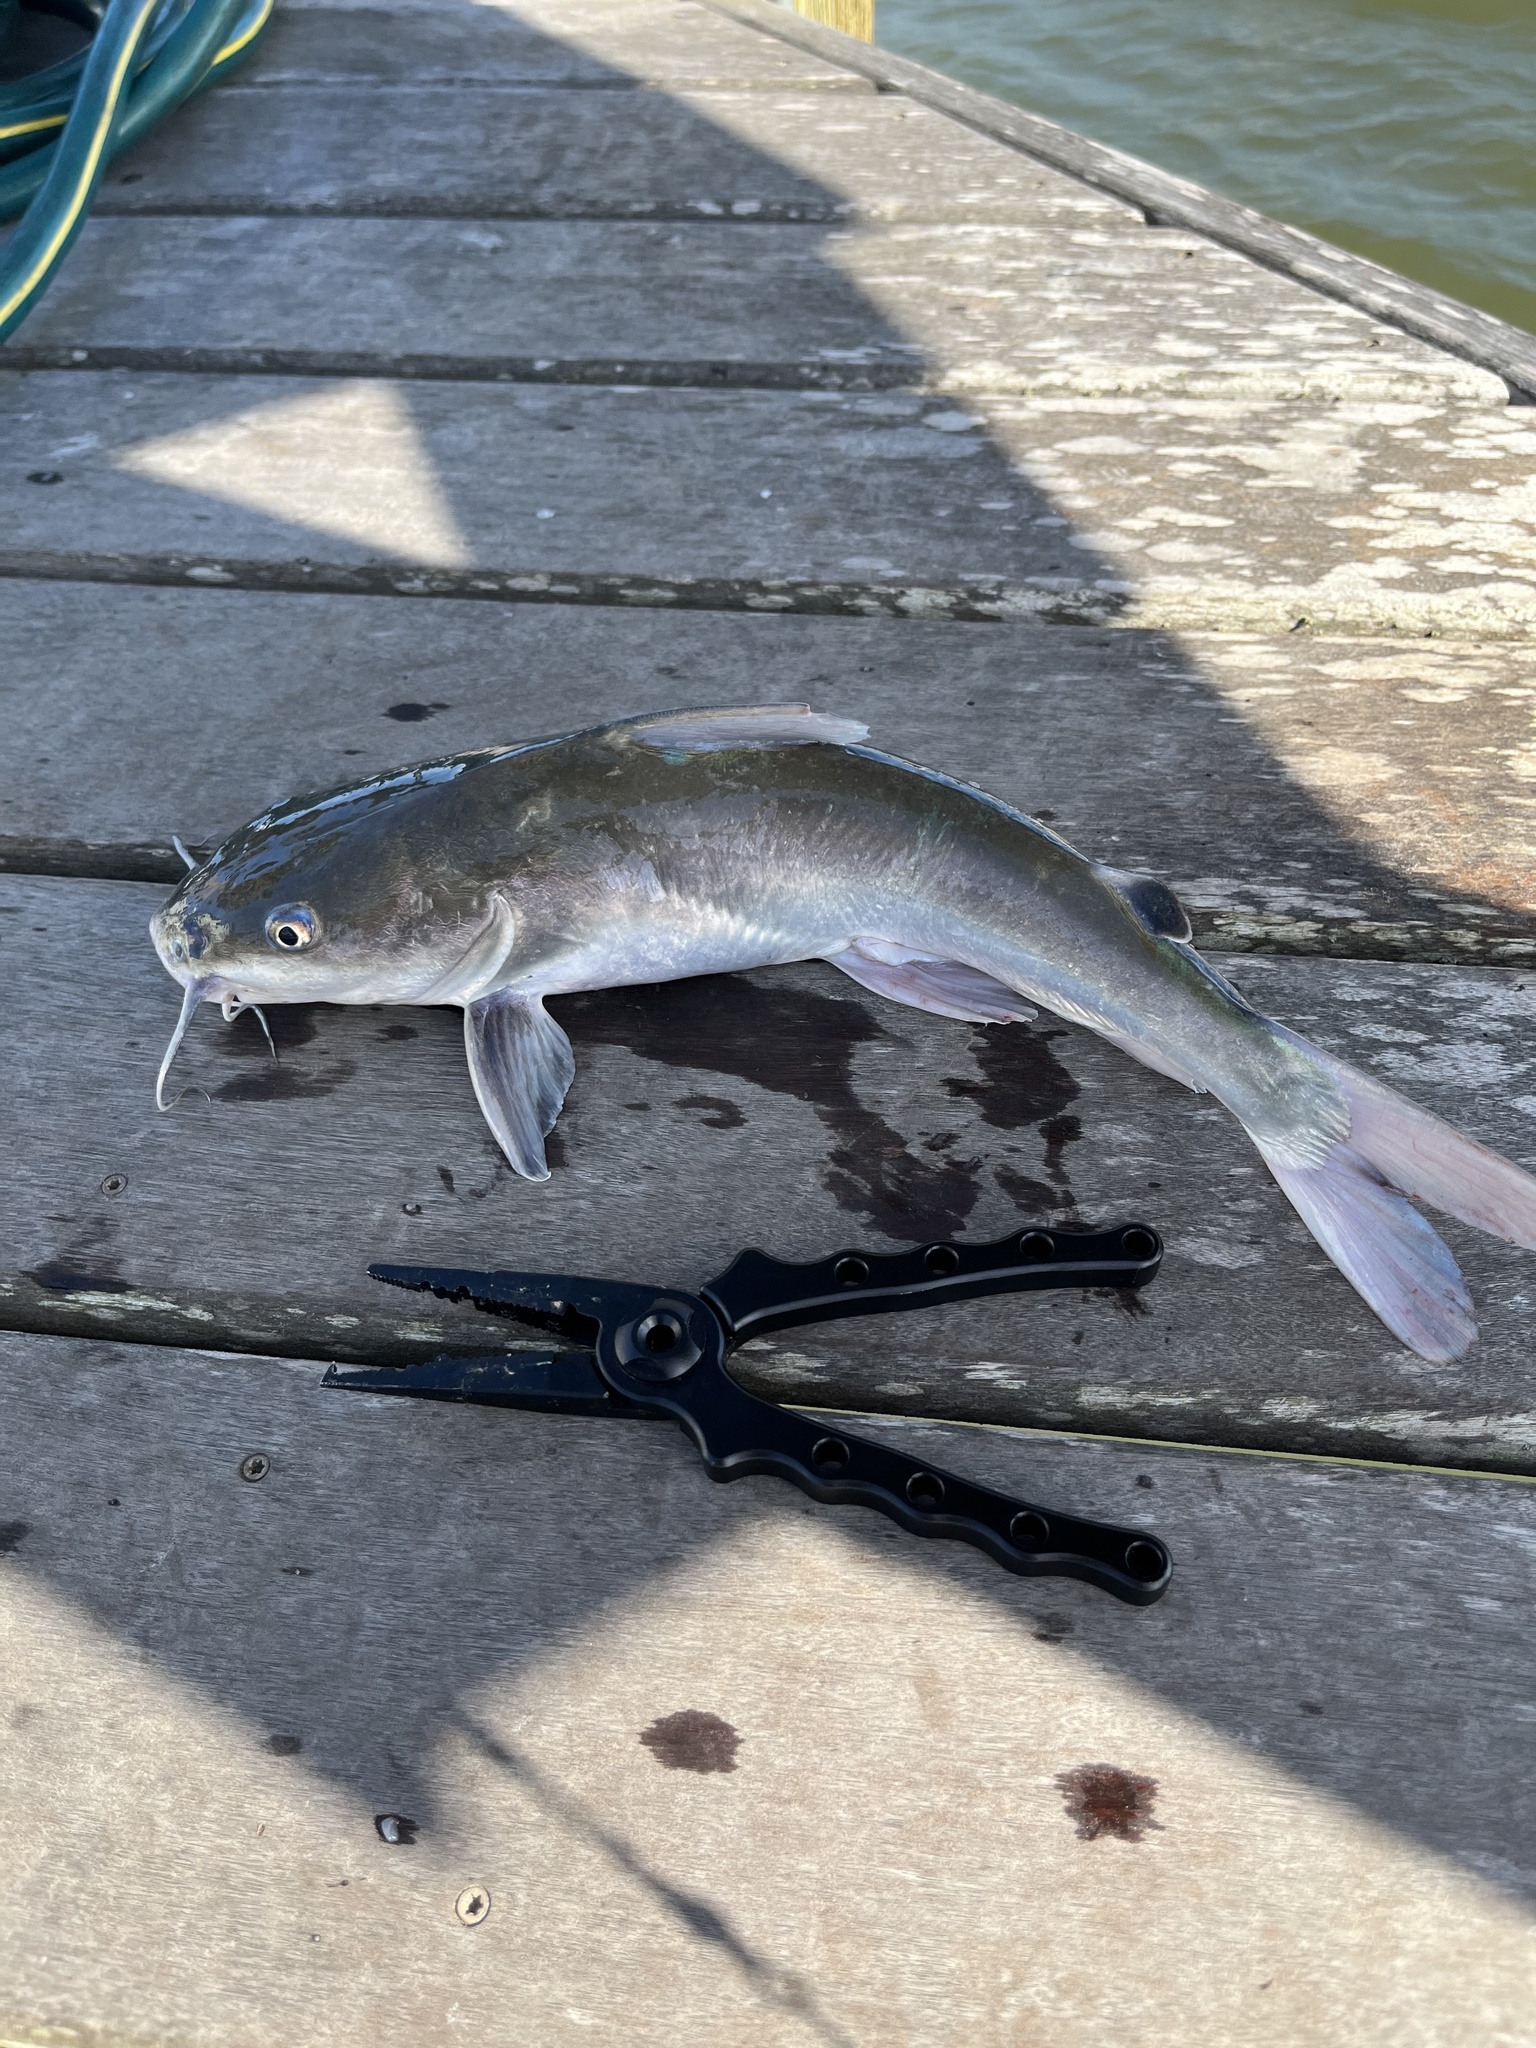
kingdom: Animalia
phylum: Chordata
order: Siluriformes
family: Ariidae
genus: Ariopsis
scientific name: Ariopsis felis
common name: Hardhead catfish
